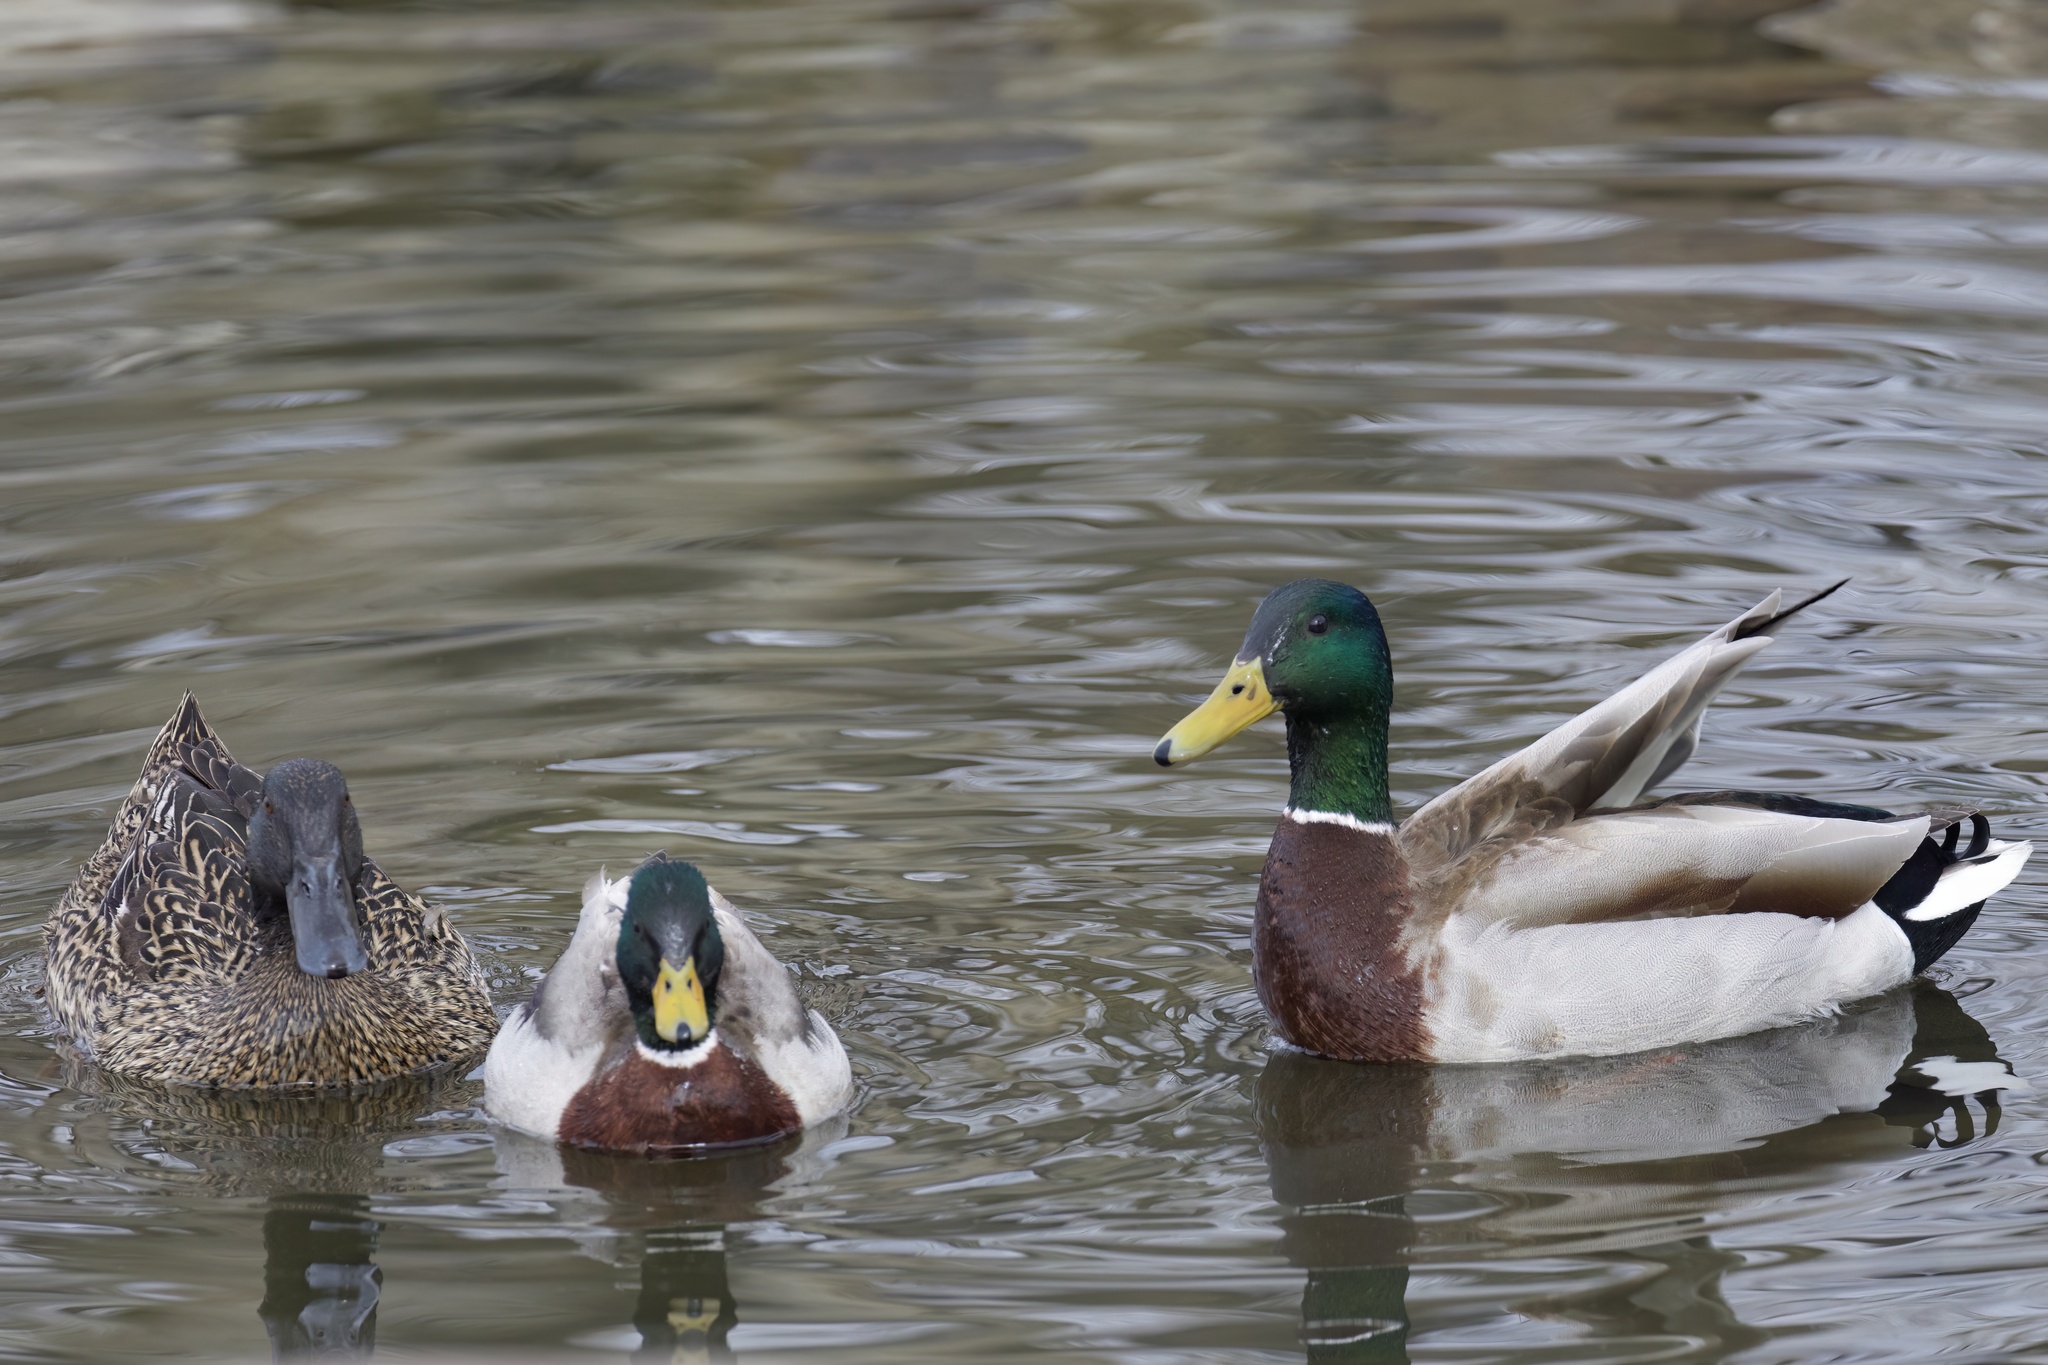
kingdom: Animalia
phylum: Chordata
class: Aves
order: Anseriformes
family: Anatidae
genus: Anas
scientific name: Anas platyrhynchos
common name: Mallard
